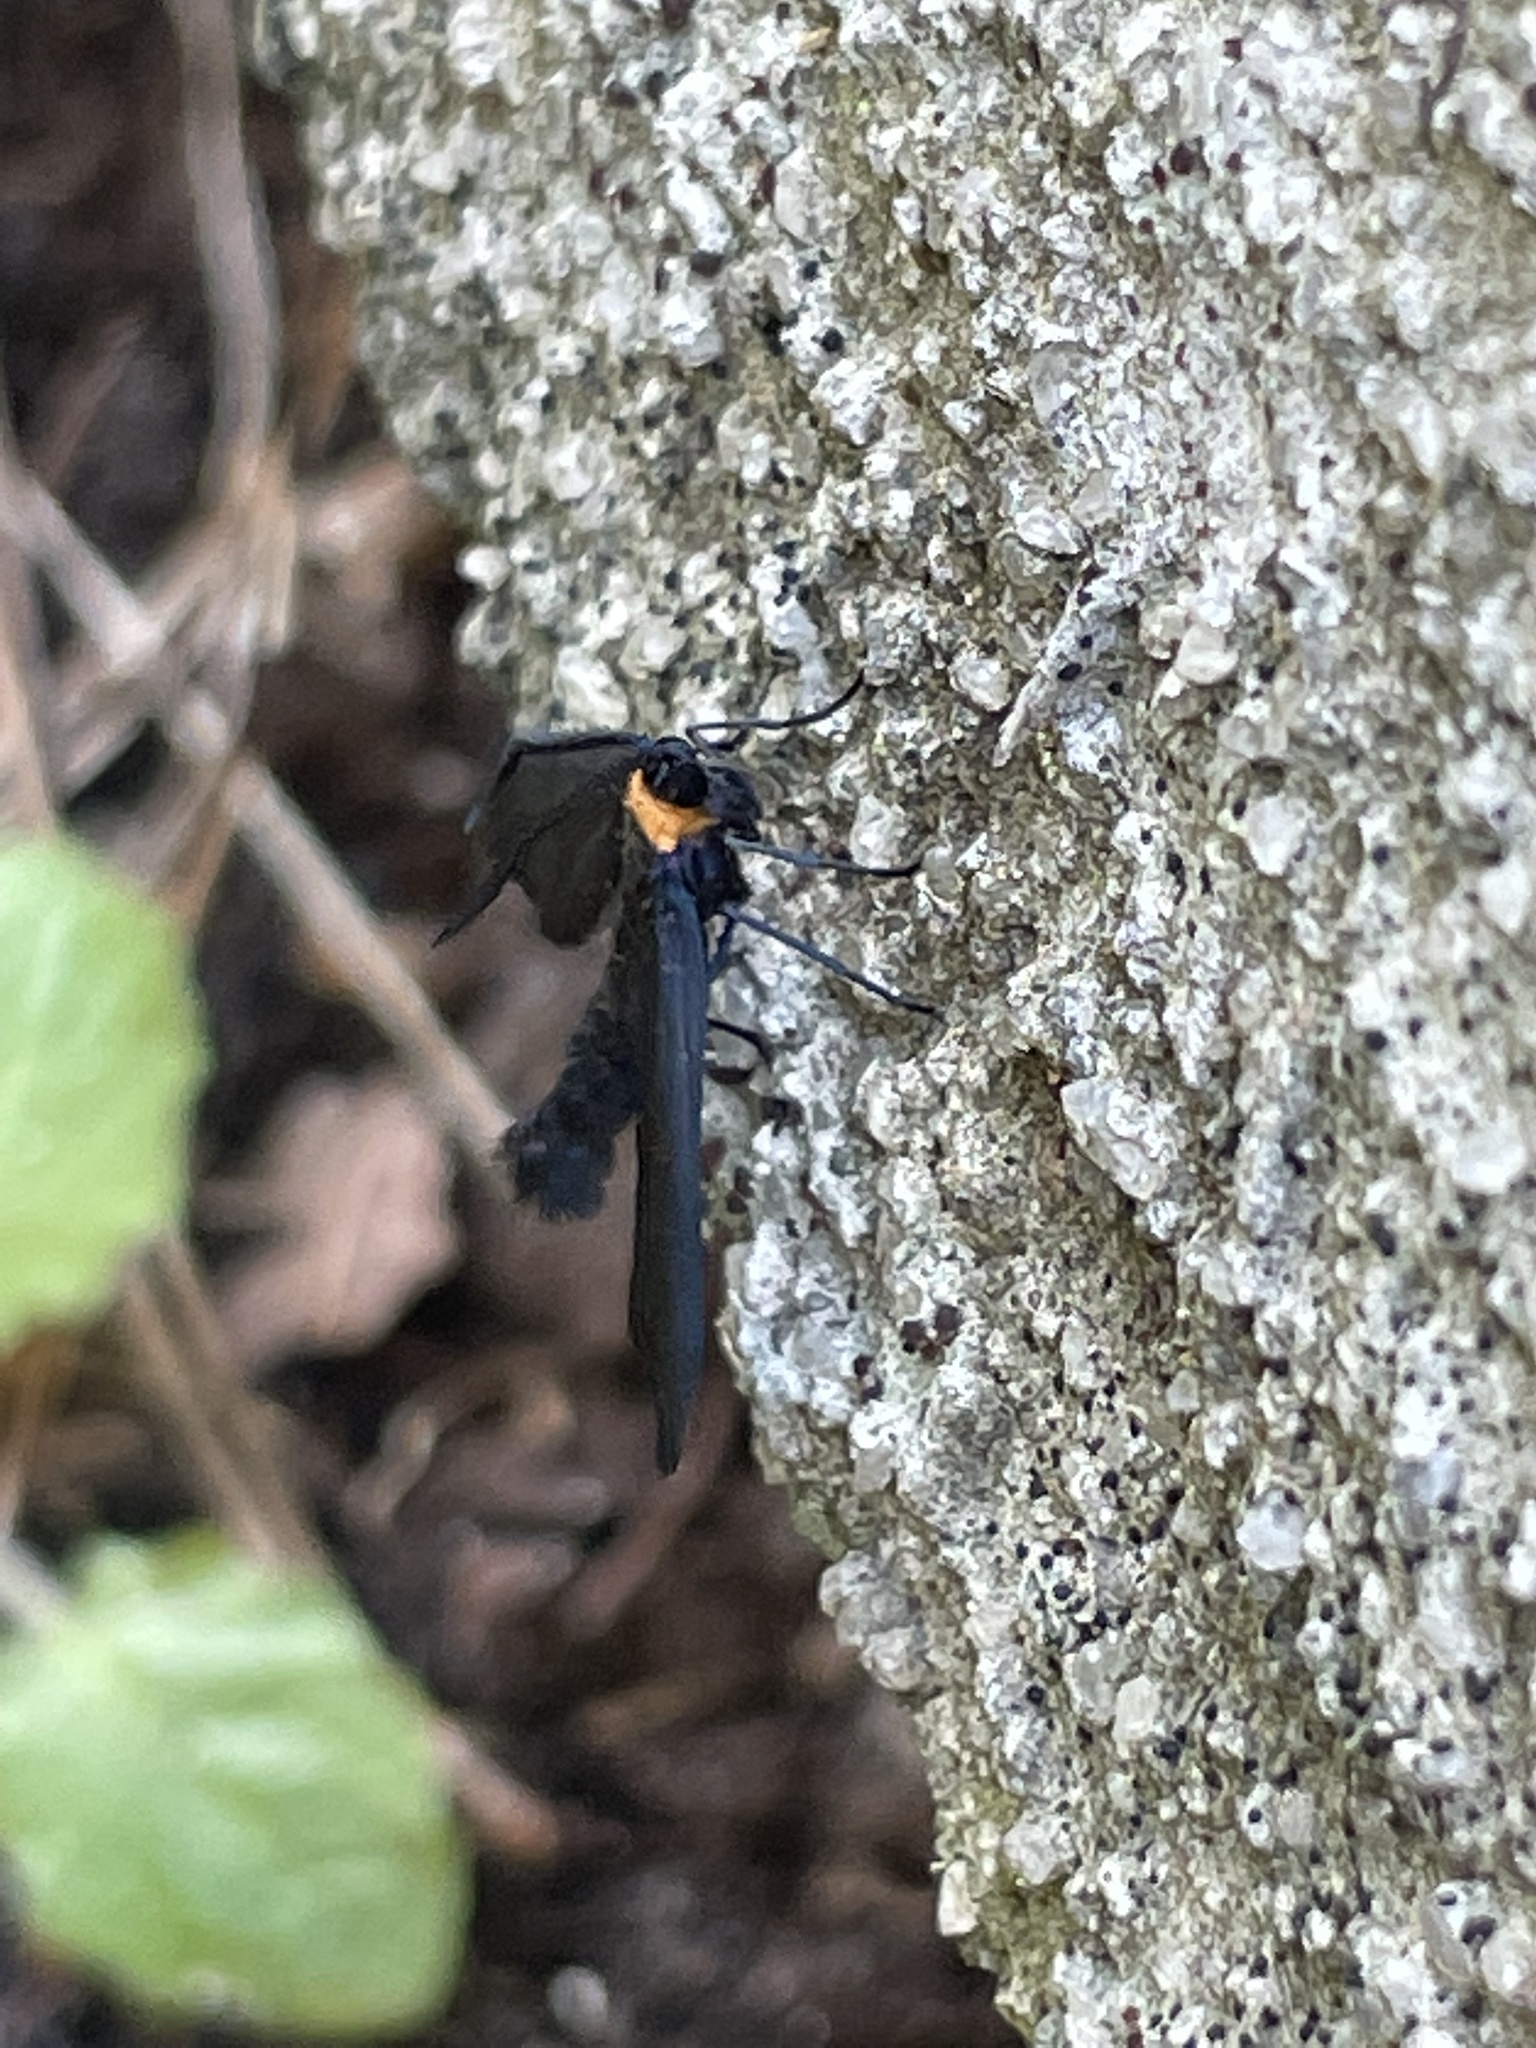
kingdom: Animalia
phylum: Arthropoda
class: Insecta
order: Lepidoptera
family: Zygaenidae
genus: Harrisina
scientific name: Harrisina americana
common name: Grapeleaf skeletonizer moth
